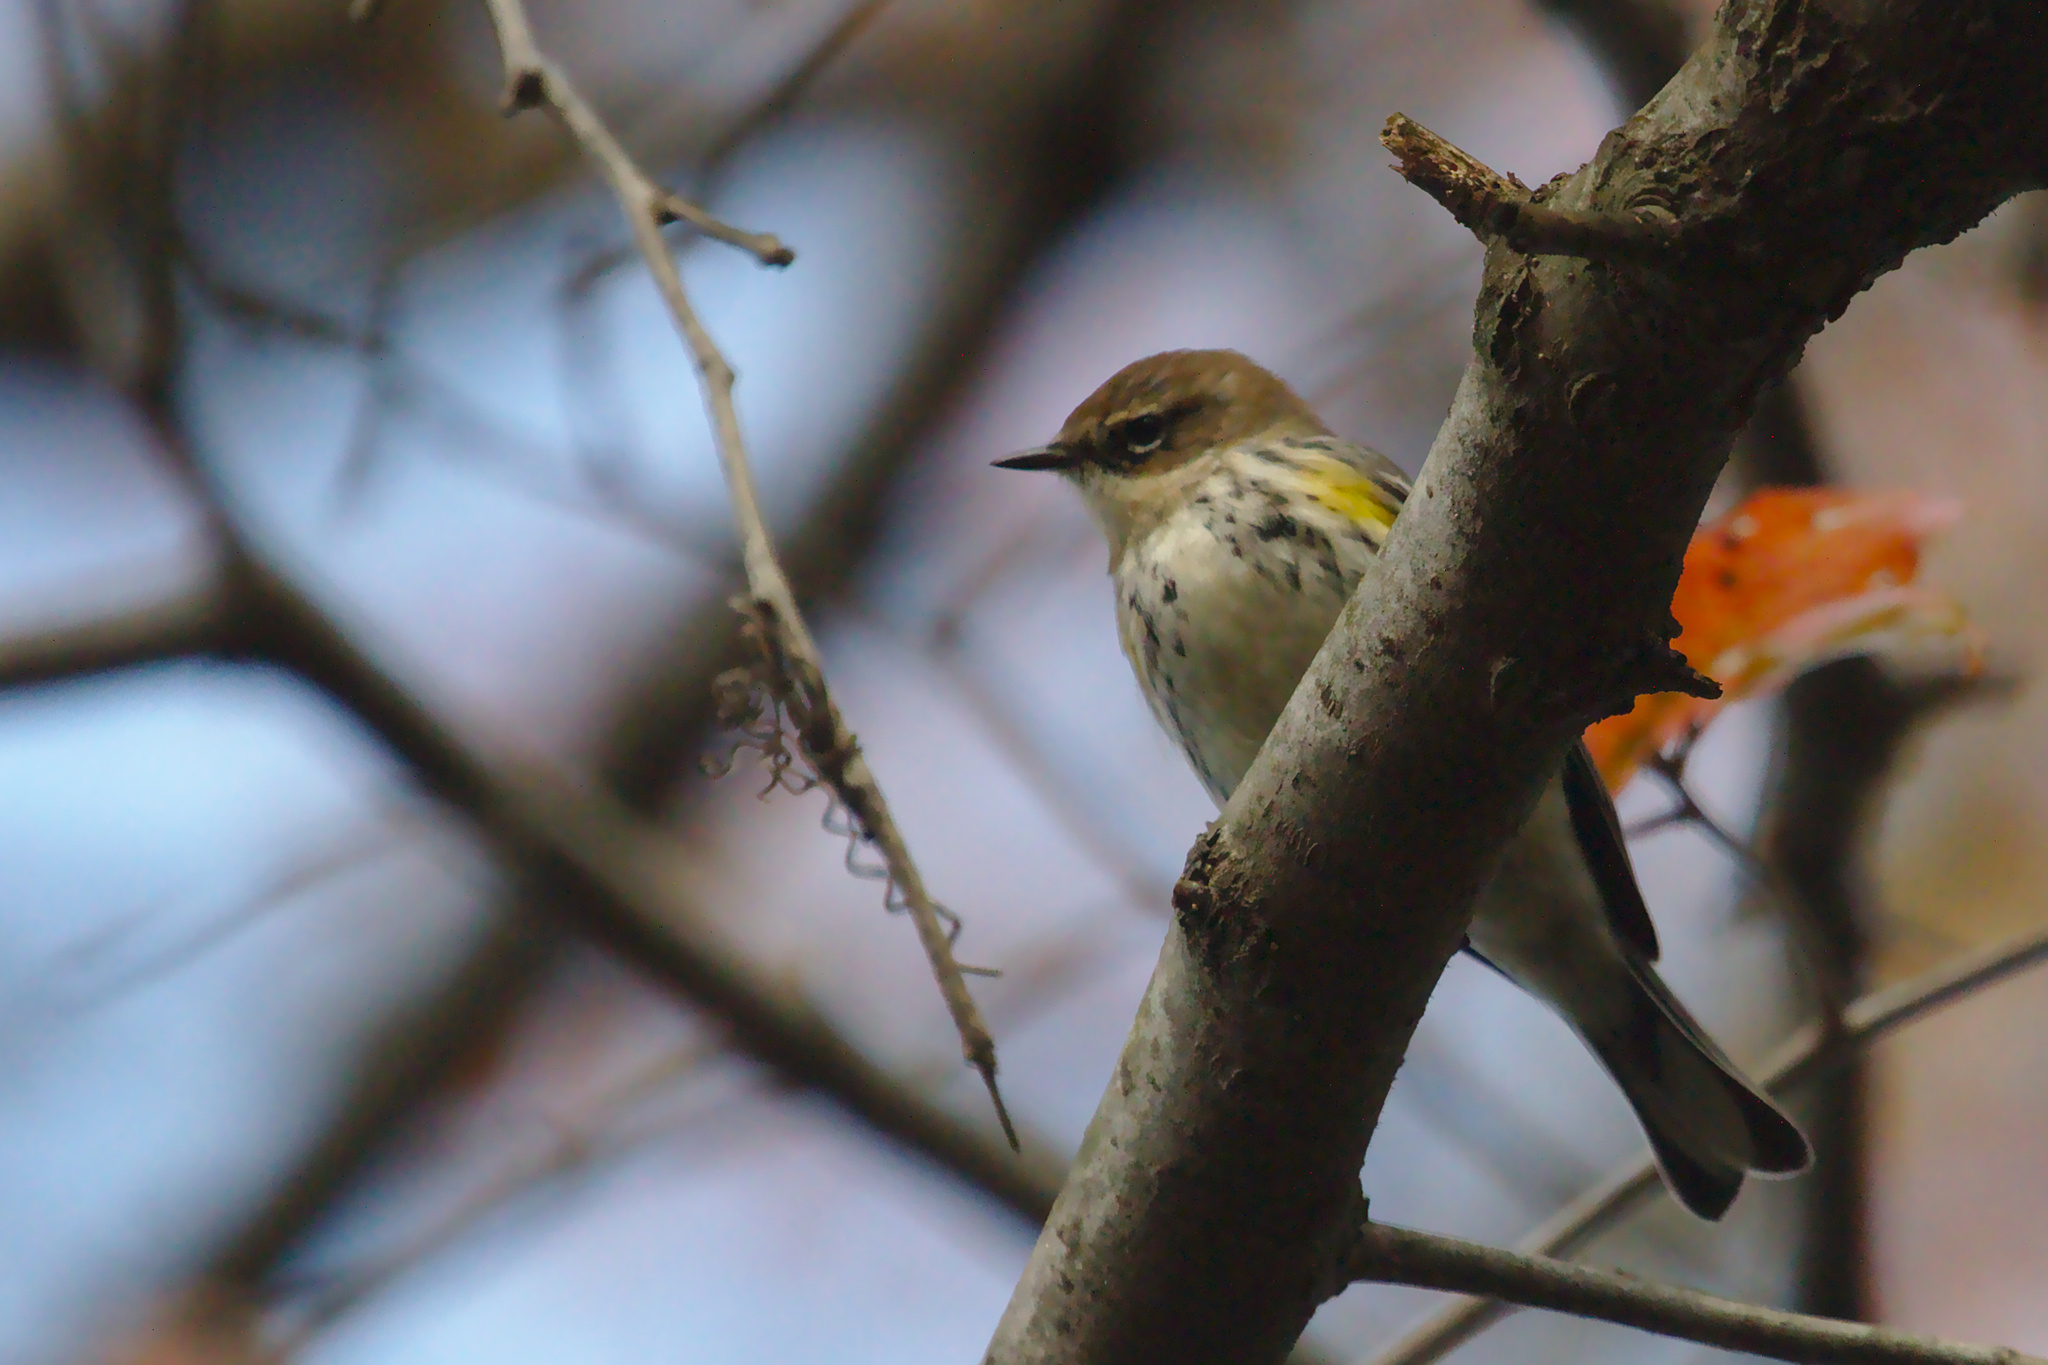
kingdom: Animalia
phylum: Chordata
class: Aves
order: Passeriformes
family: Parulidae
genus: Setophaga
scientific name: Setophaga coronata
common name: Myrtle warbler
